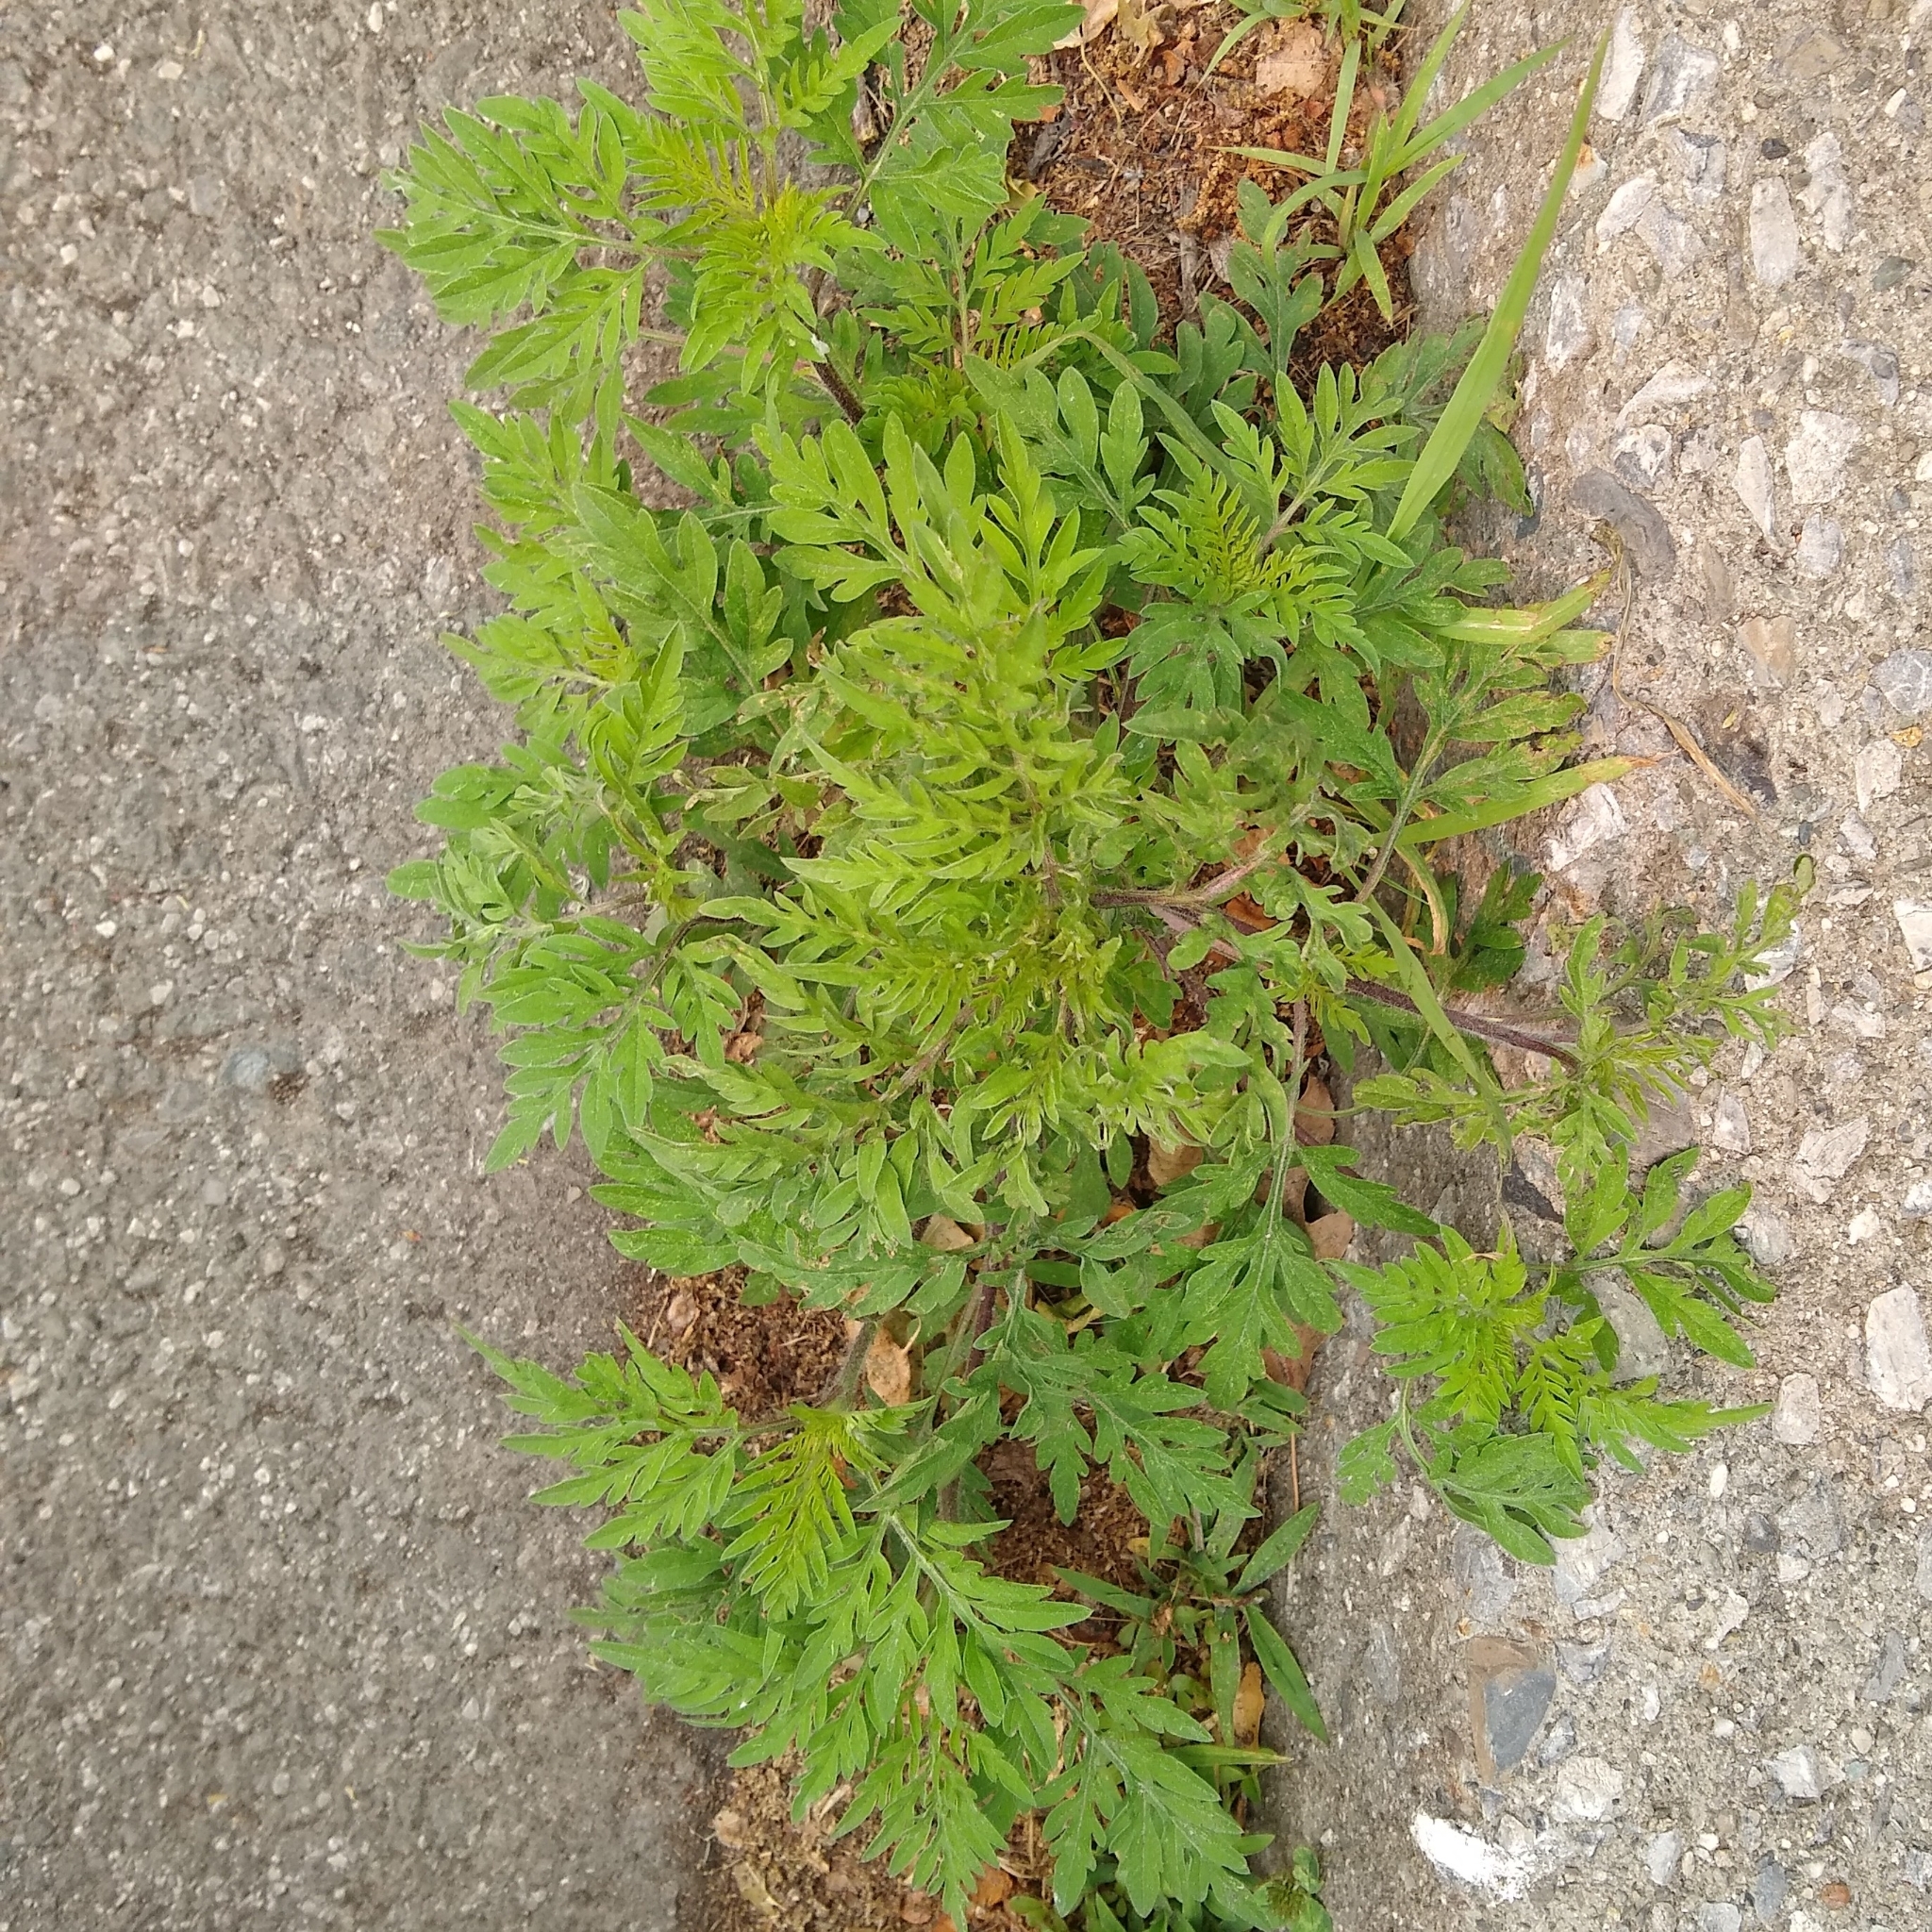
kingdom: Plantae
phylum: Tracheophyta
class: Magnoliopsida
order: Asterales
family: Asteraceae
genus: Ambrosia
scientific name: Ambrosia artemisiifolia
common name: Annual ragweed
